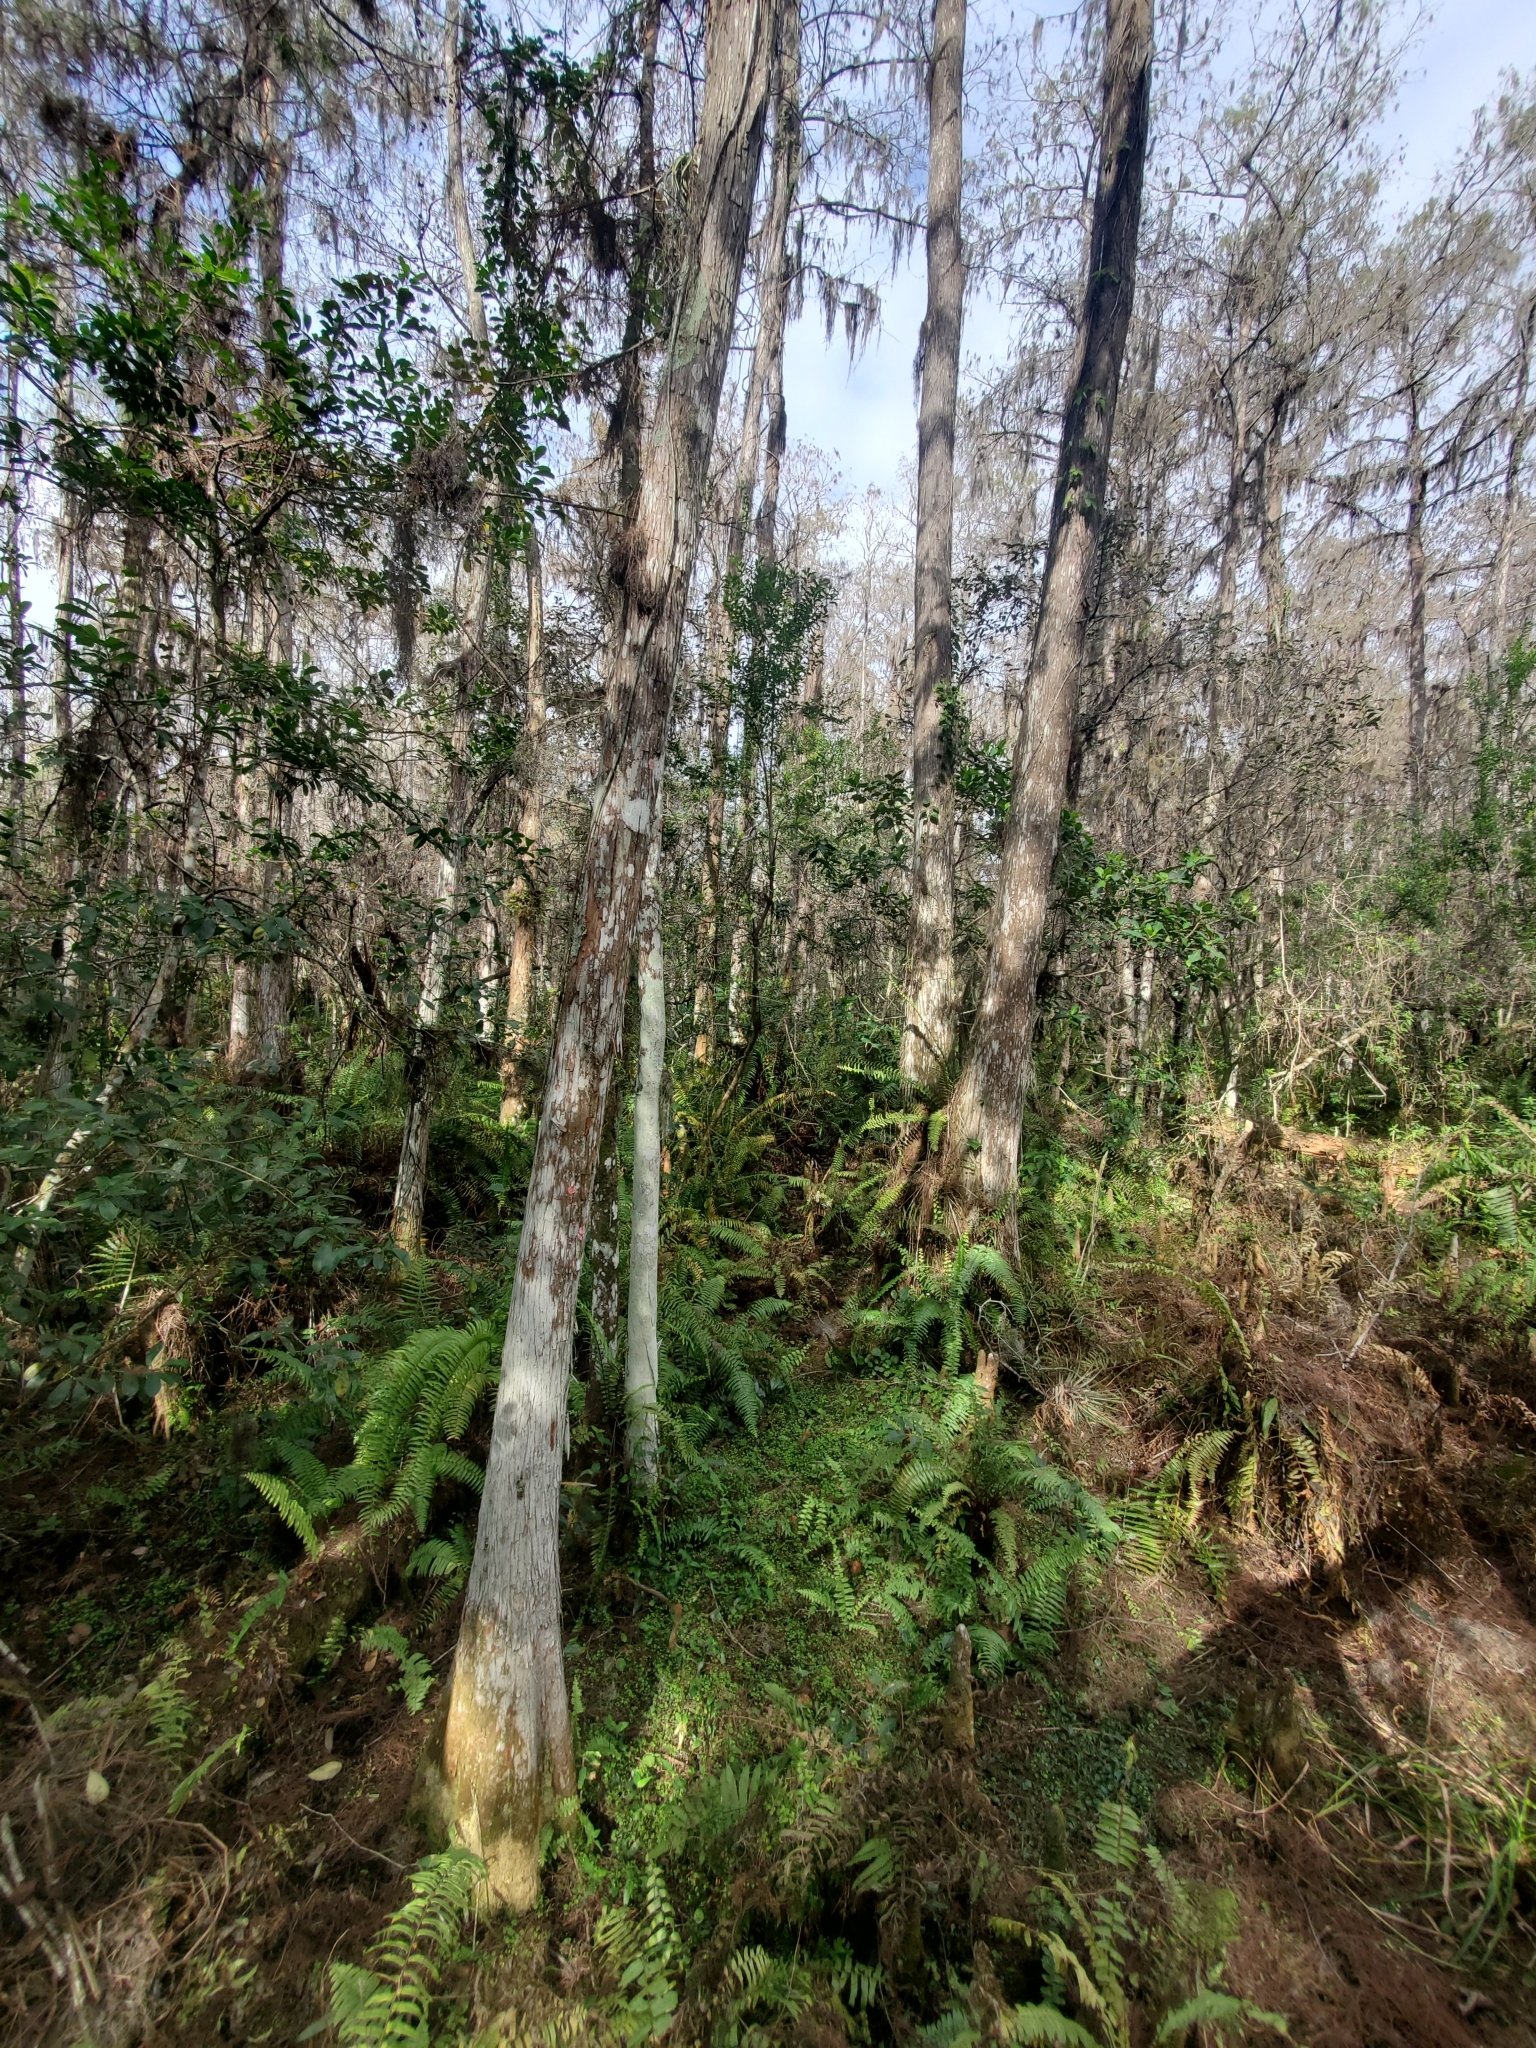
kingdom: Plantae
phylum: Tracheophyta
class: Pinopsida
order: Pinales
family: Cupressaceae
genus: Taxodium
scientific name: Taxodium distichum
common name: Bald cypress
